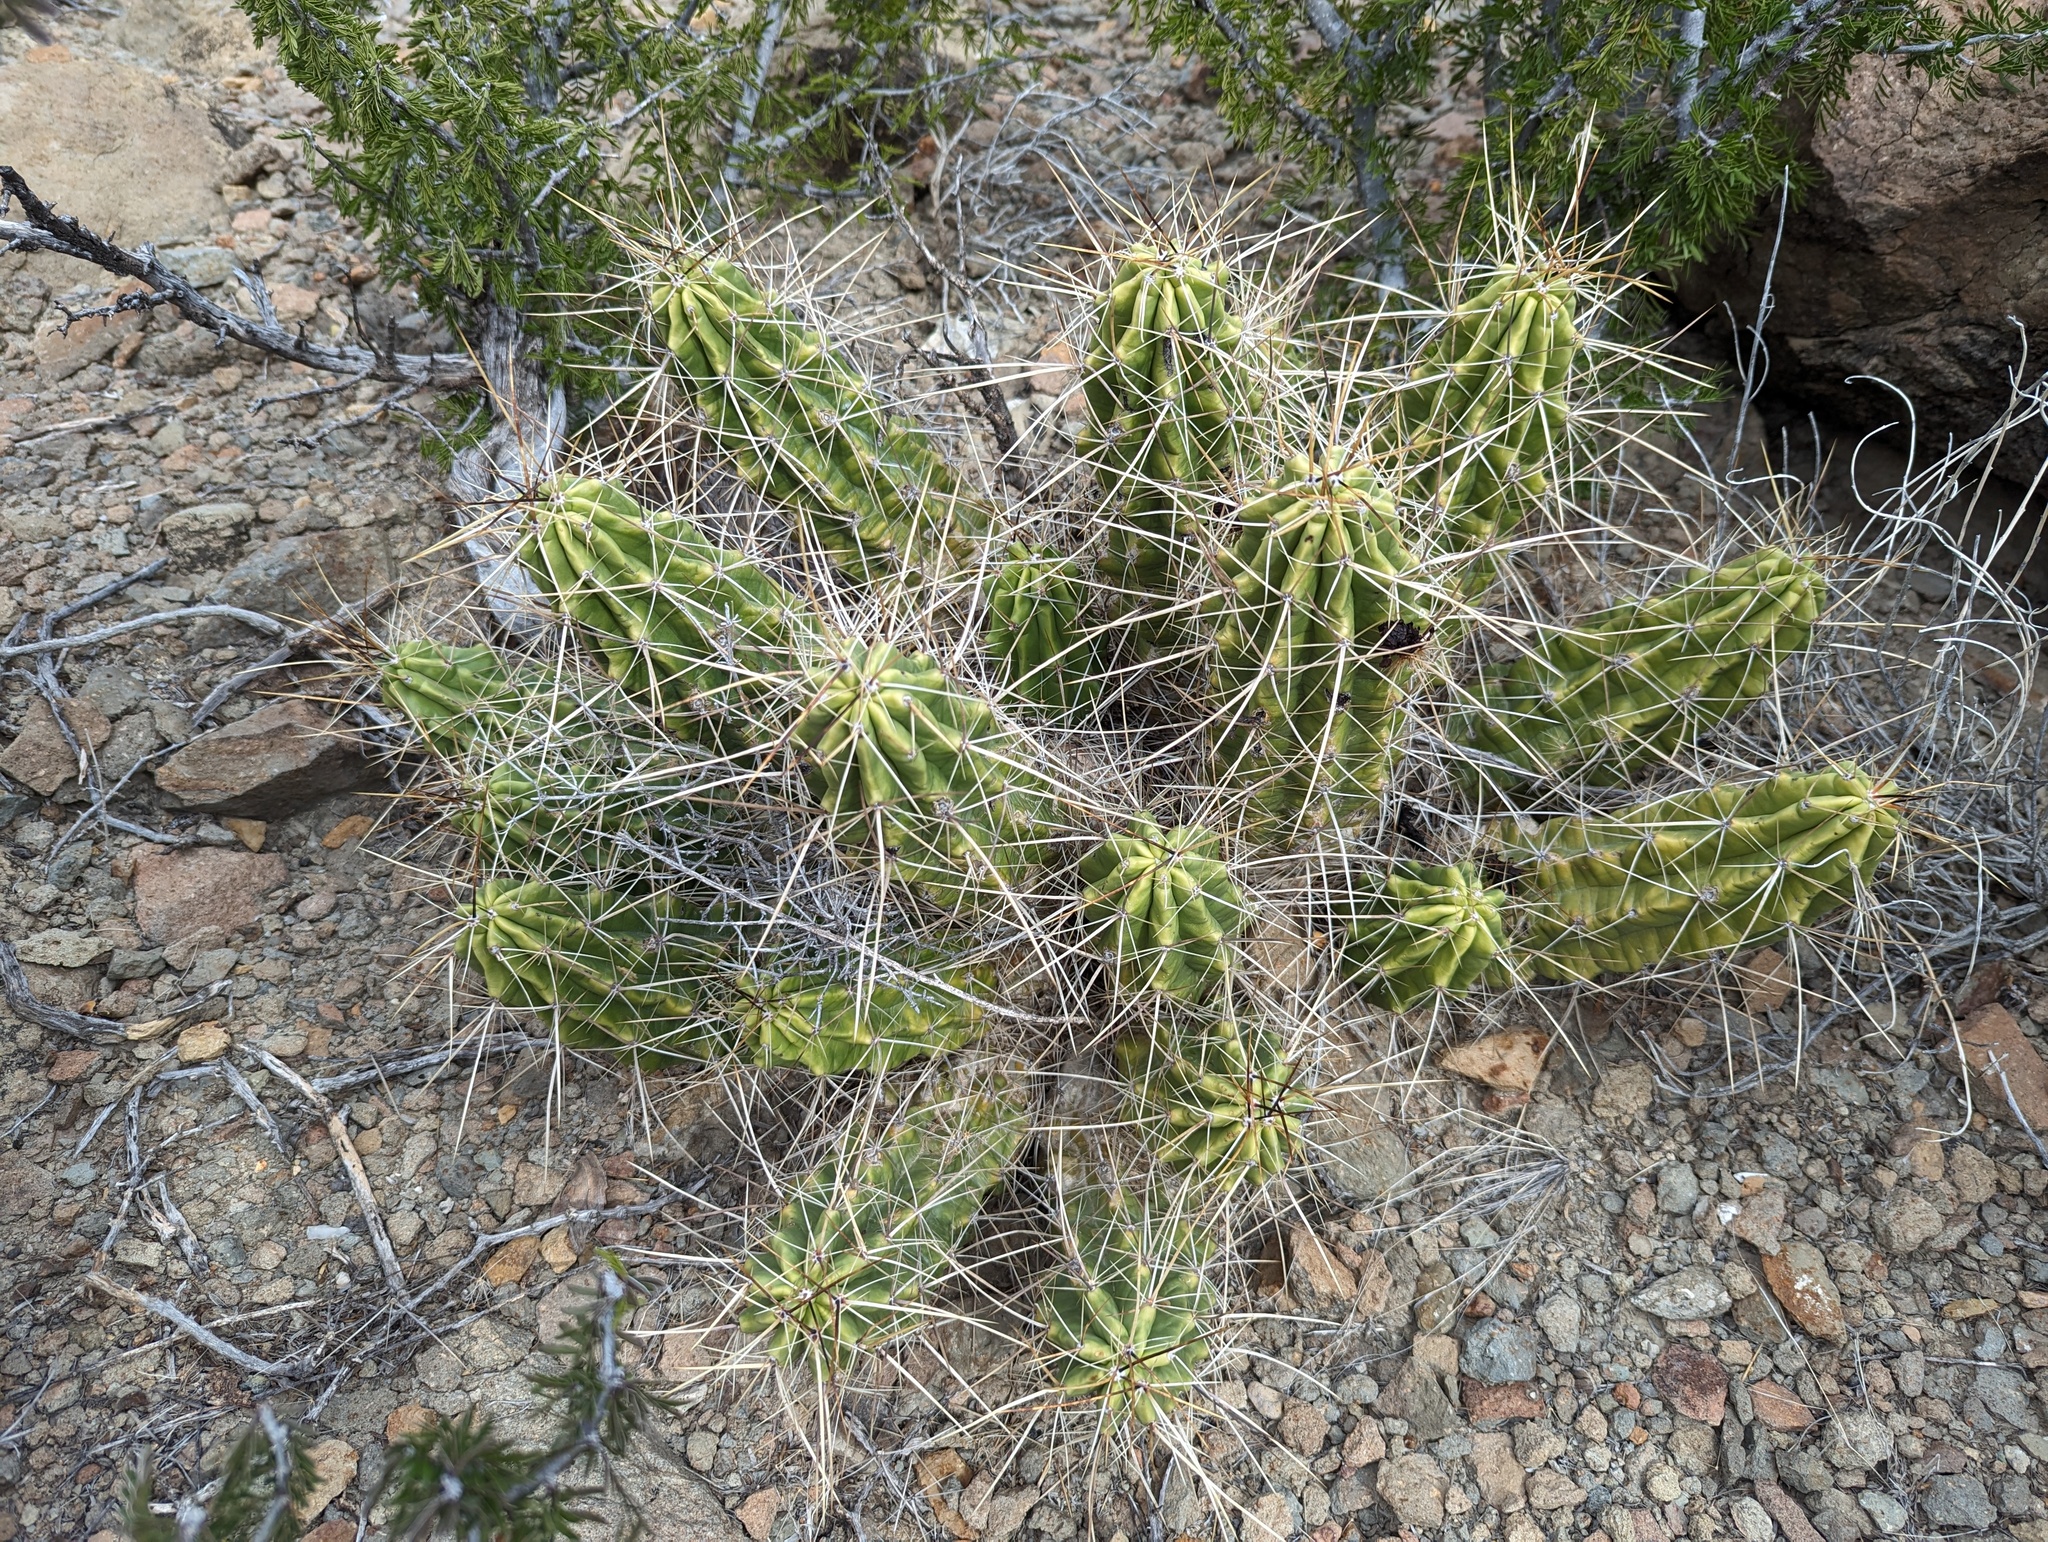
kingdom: Plantae
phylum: Tracheophyta
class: Magnoliopsida
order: Caryophyllales
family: Cactaceae
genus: Echinocereus
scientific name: Echinocereus enneacanthus
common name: Pitaya
